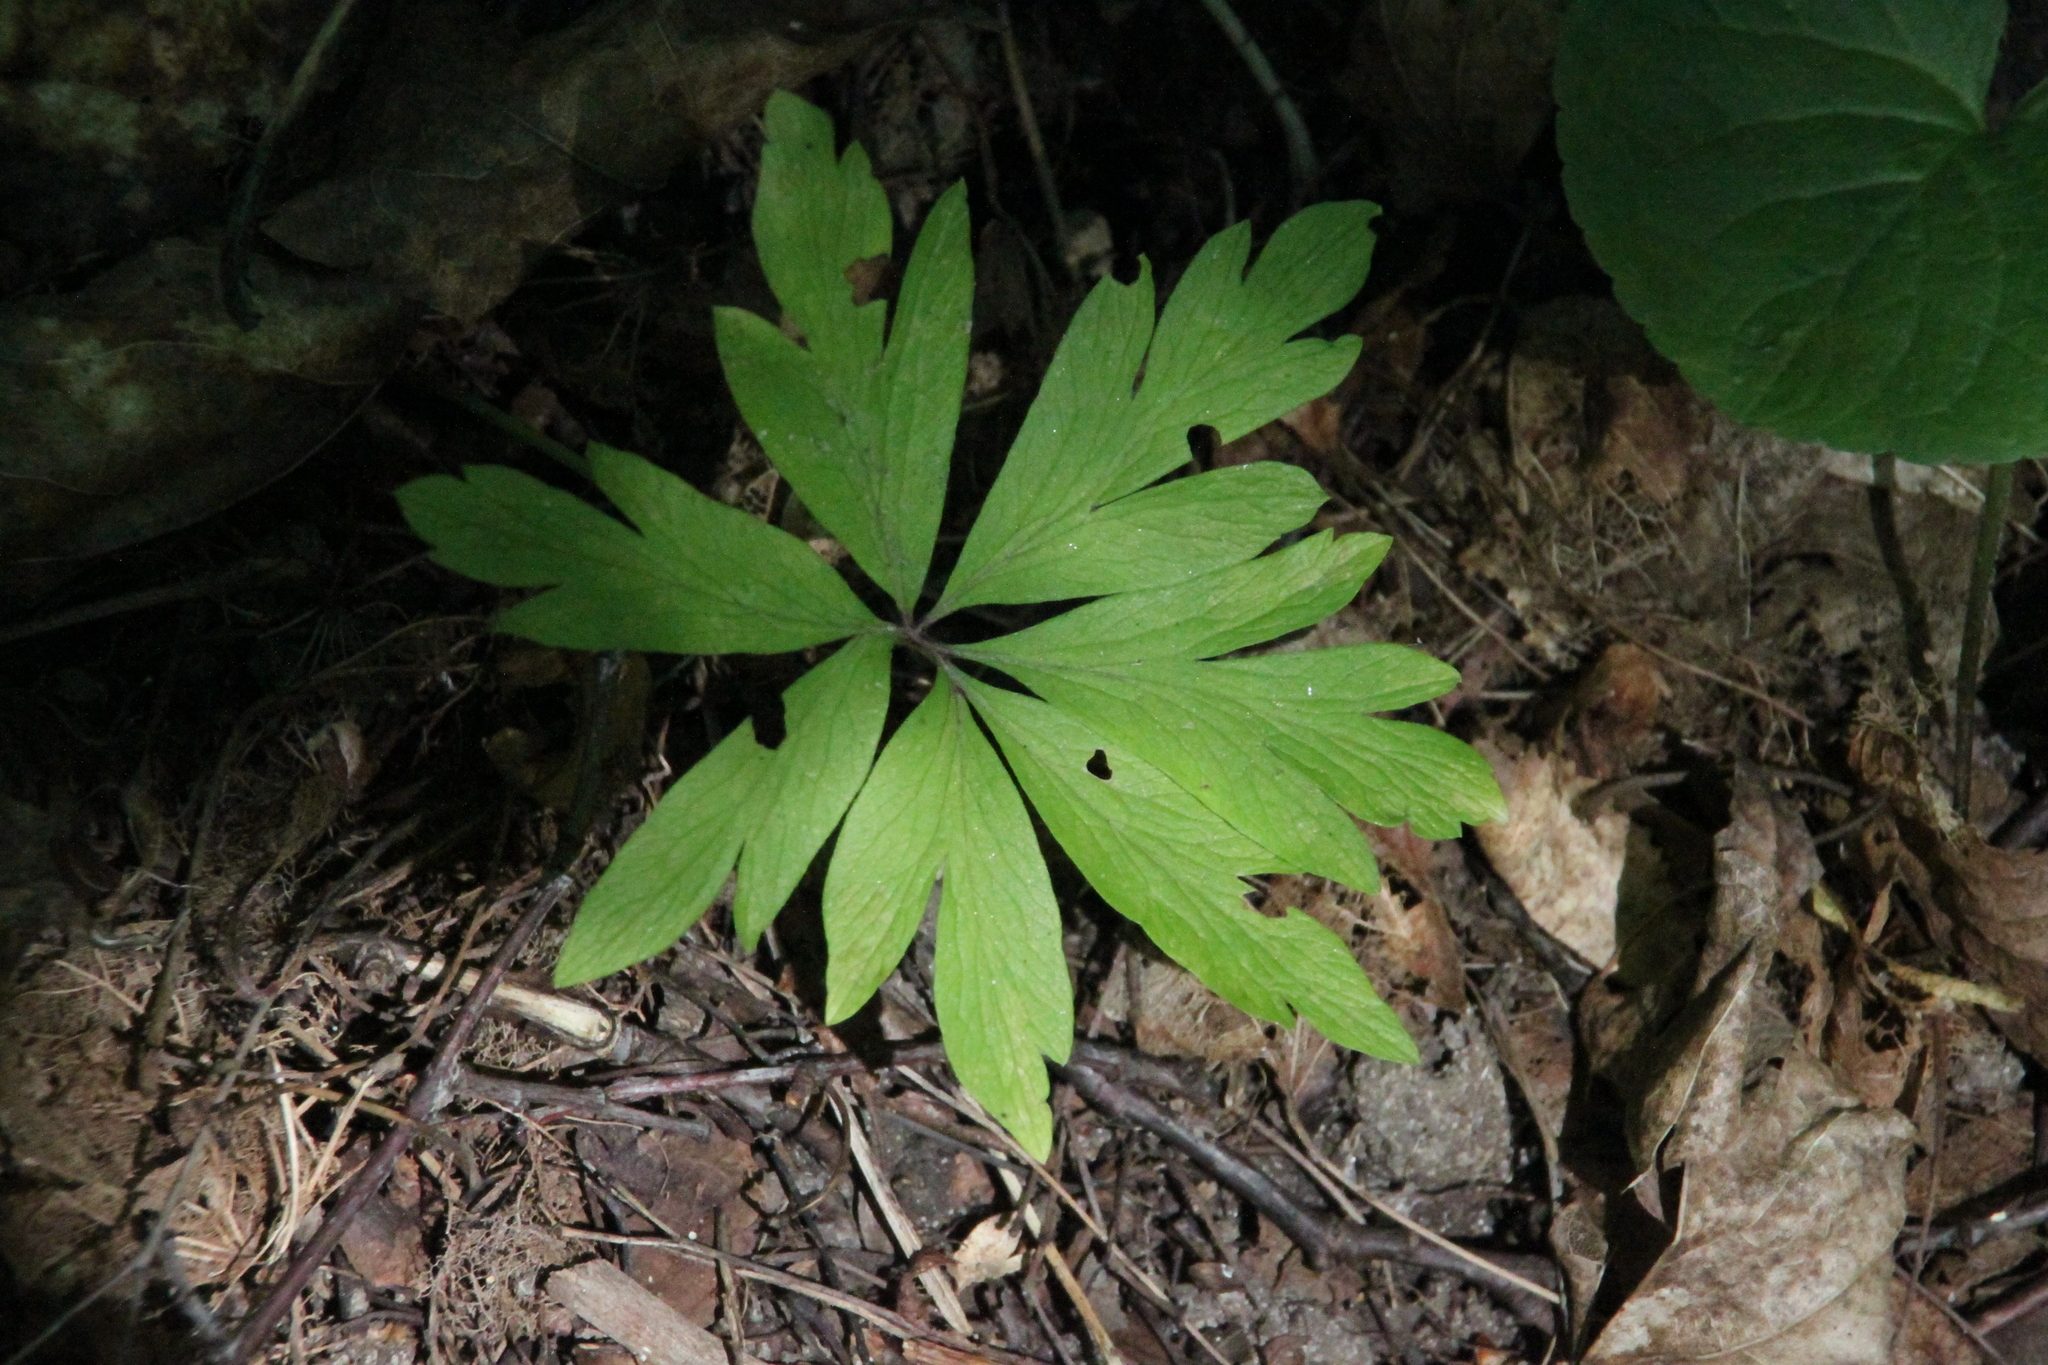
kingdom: Plantae
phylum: Tracheophyta
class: Magnoliopsida
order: Ranunculales
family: Ranunculaceae
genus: Anemone
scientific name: Anemone ranunculoides
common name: Yellow anemone
